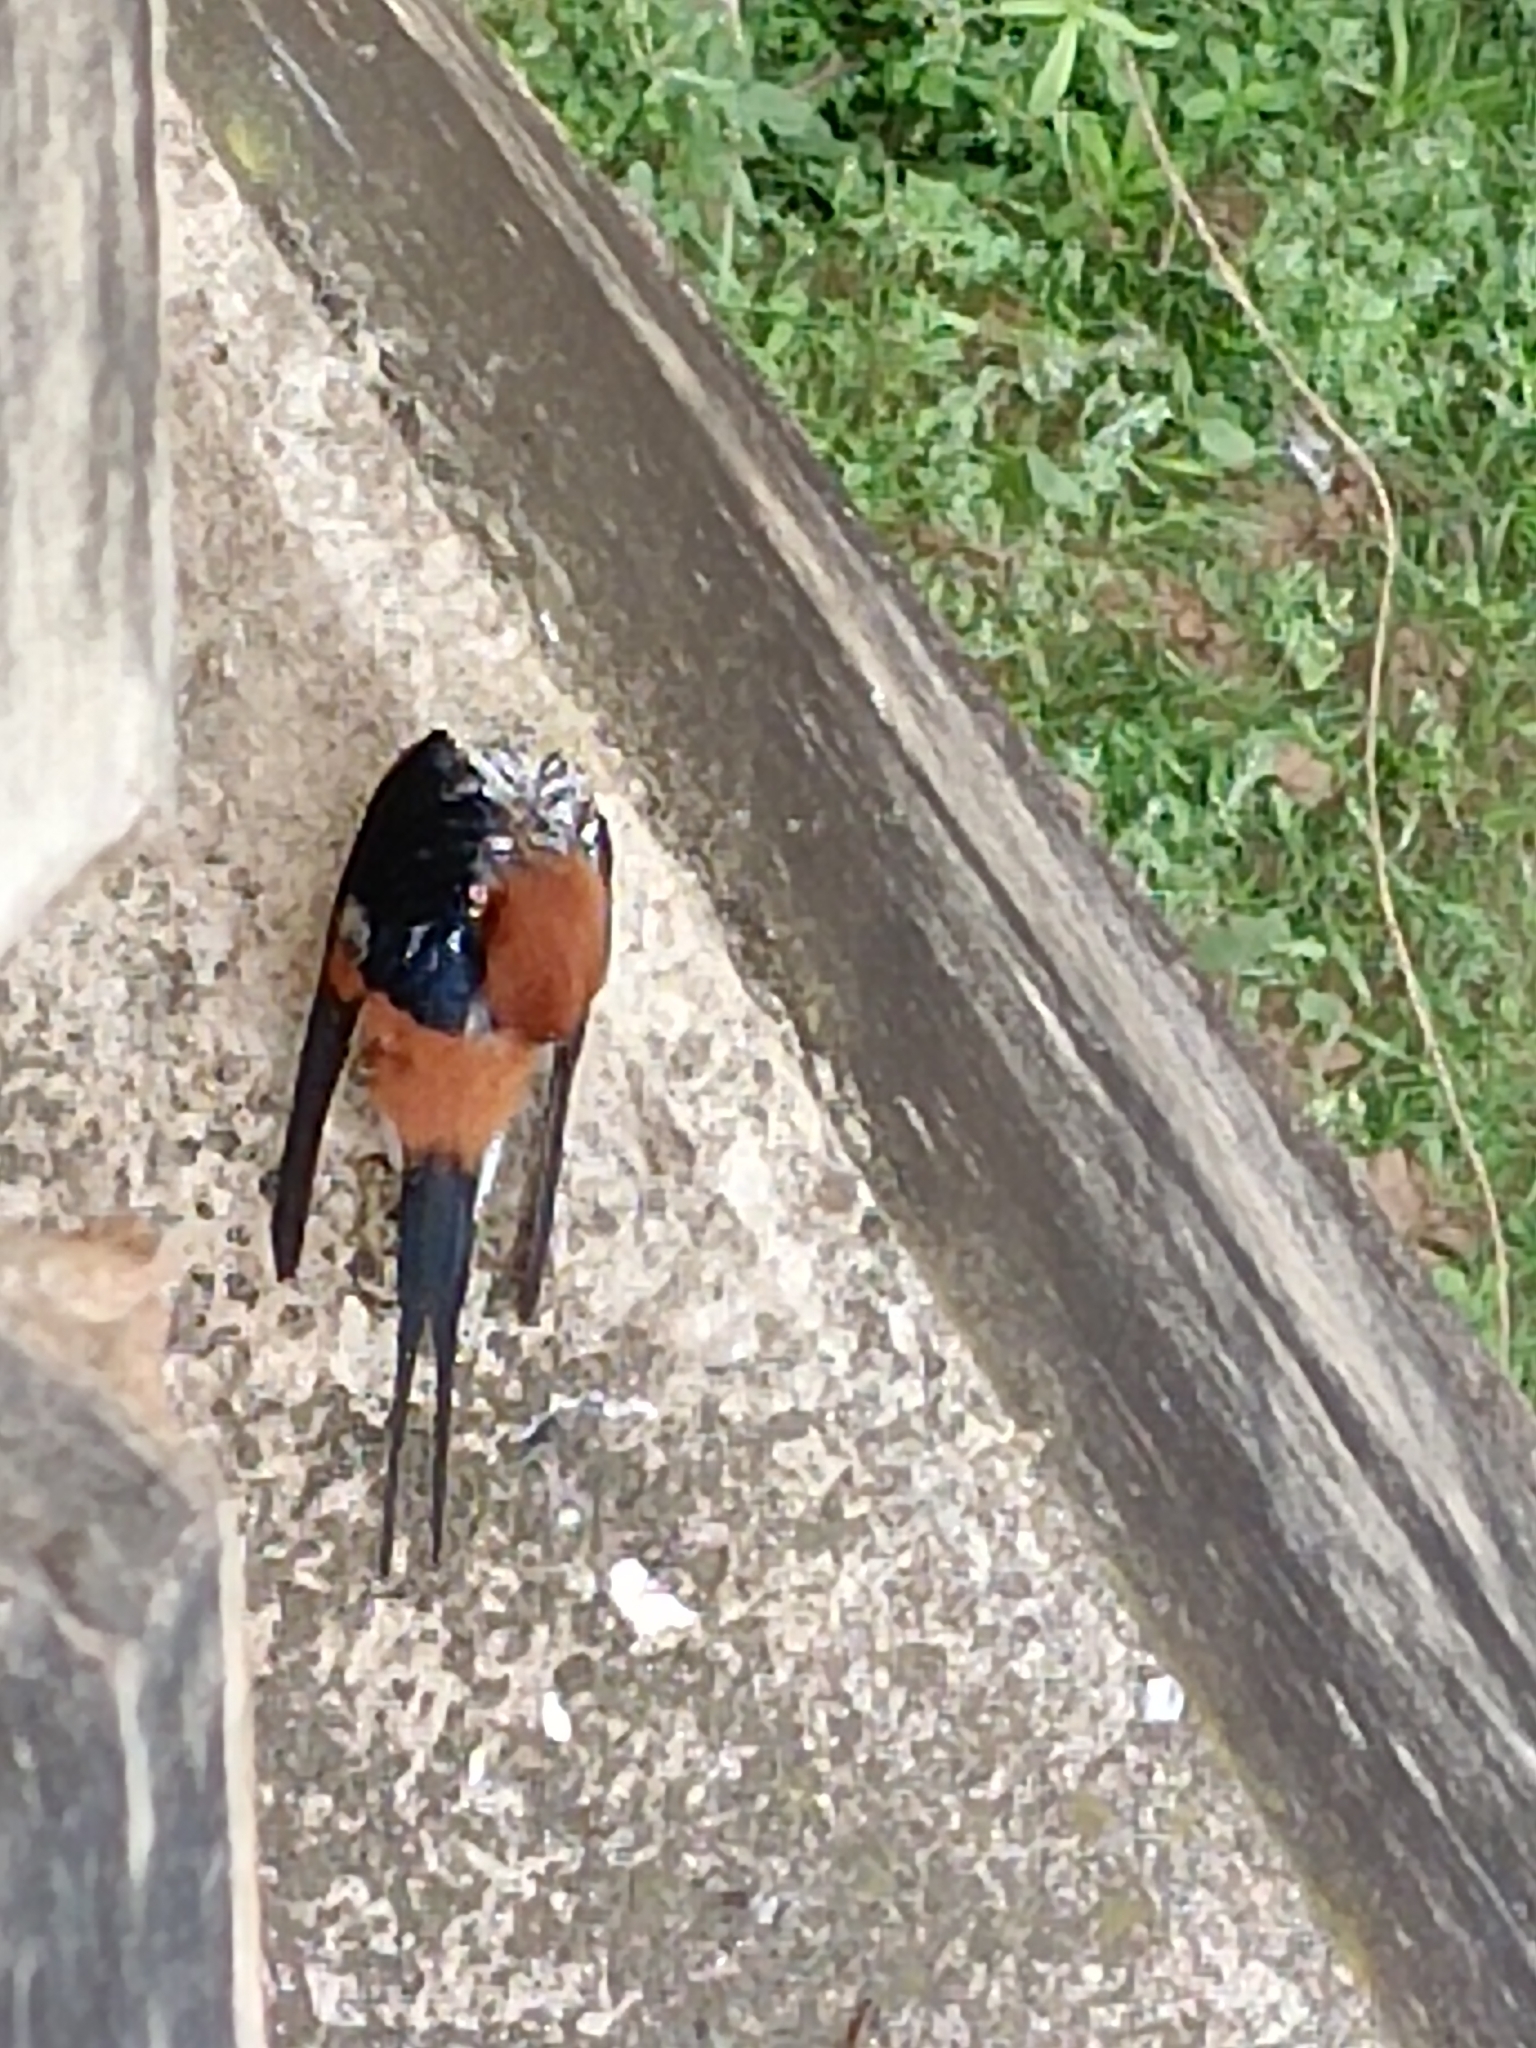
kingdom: Animalia
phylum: Chordata
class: Aves
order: Passeriformes
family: Hirundinidae
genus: Cecropis
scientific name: Cecropis abyssinica
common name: Lesser striped-swallow
